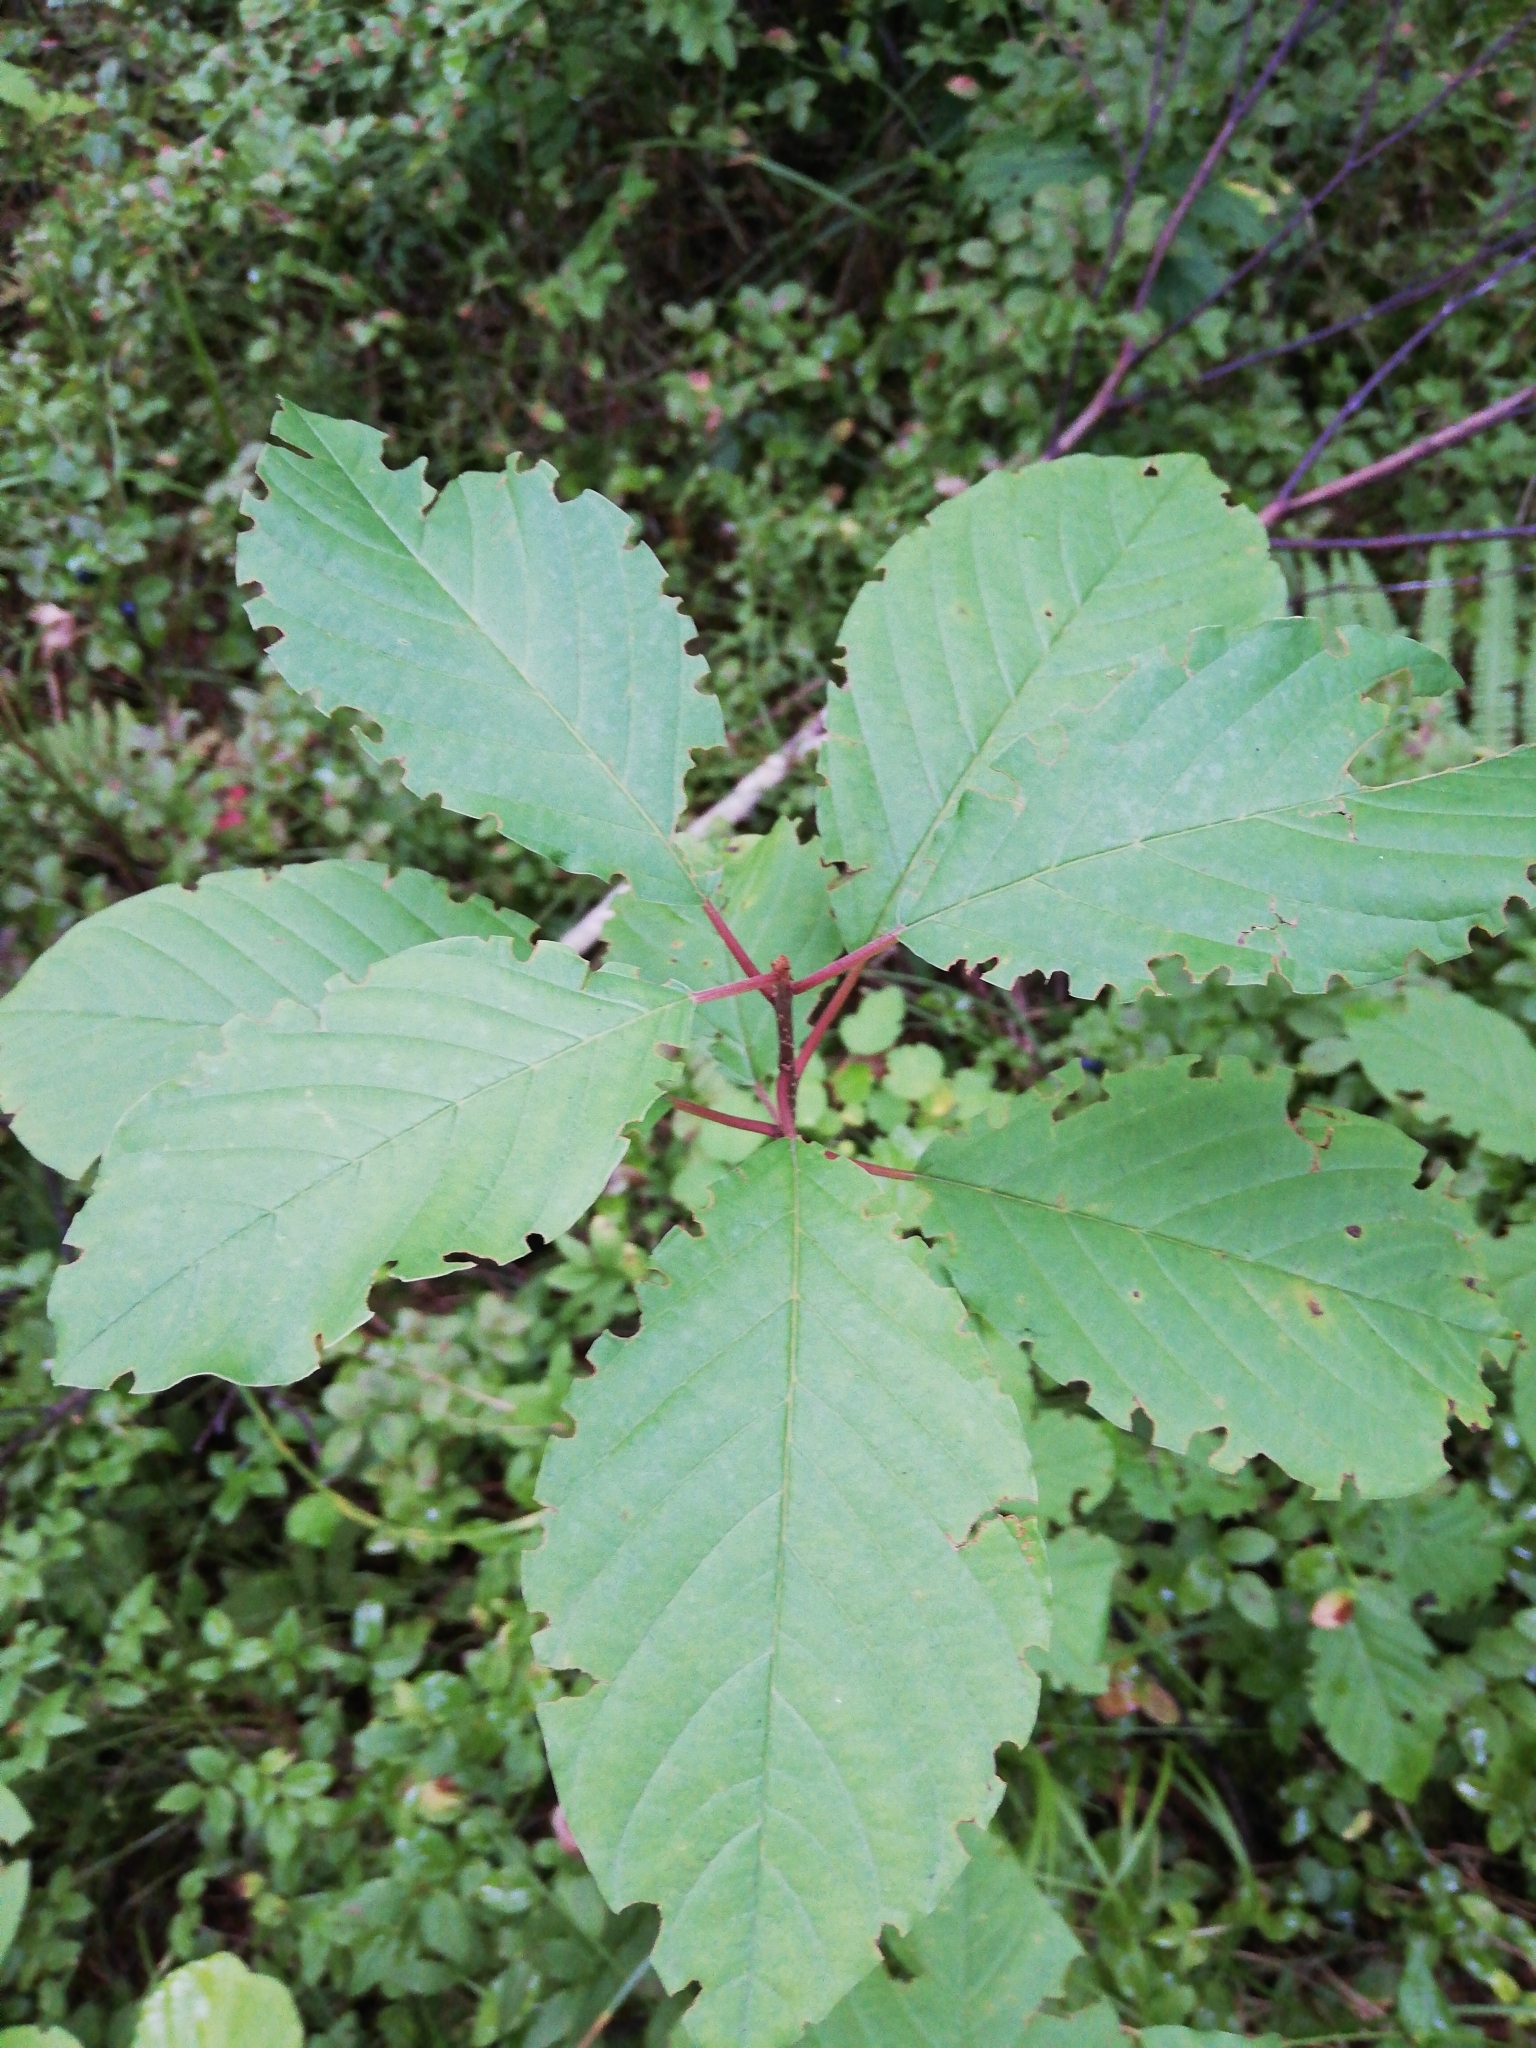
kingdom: Plantae
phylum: Tracheophyta
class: Magnoliopsida
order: Rosales
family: Rhamnaceae
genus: Frangula
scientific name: Frangula alnus
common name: Alder buckthorn
